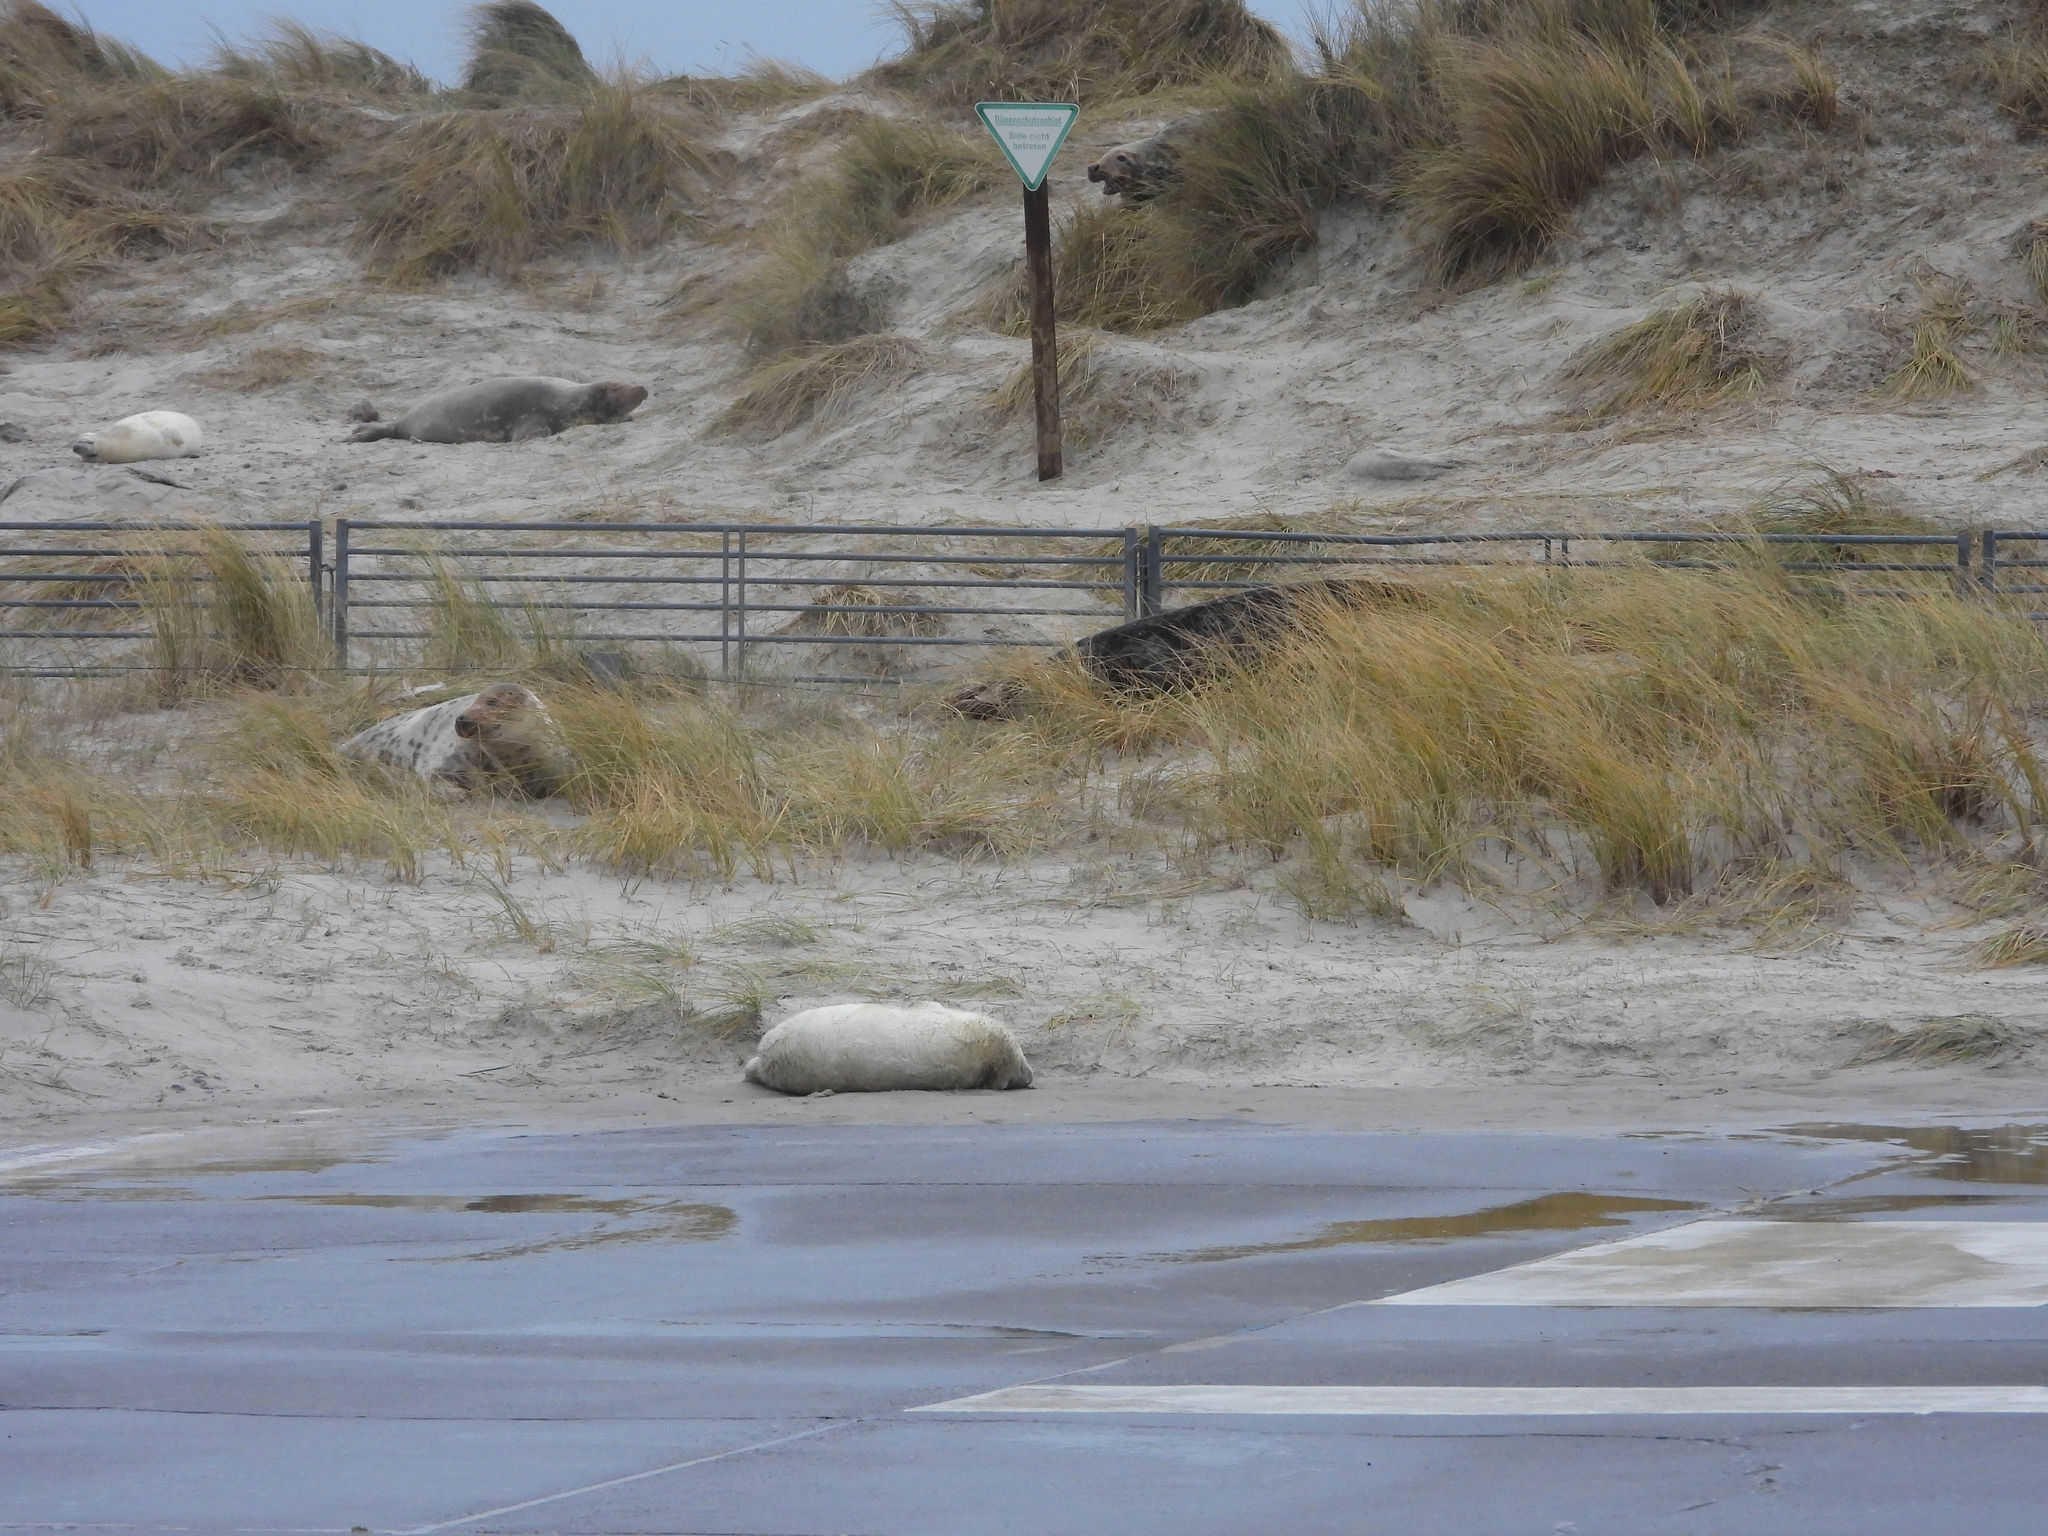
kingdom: Animalia
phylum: Chordata
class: Mammalia
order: Carnivora
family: Phocidae
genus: Halichoerus
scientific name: Halichoerus grypus
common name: Grey seal
